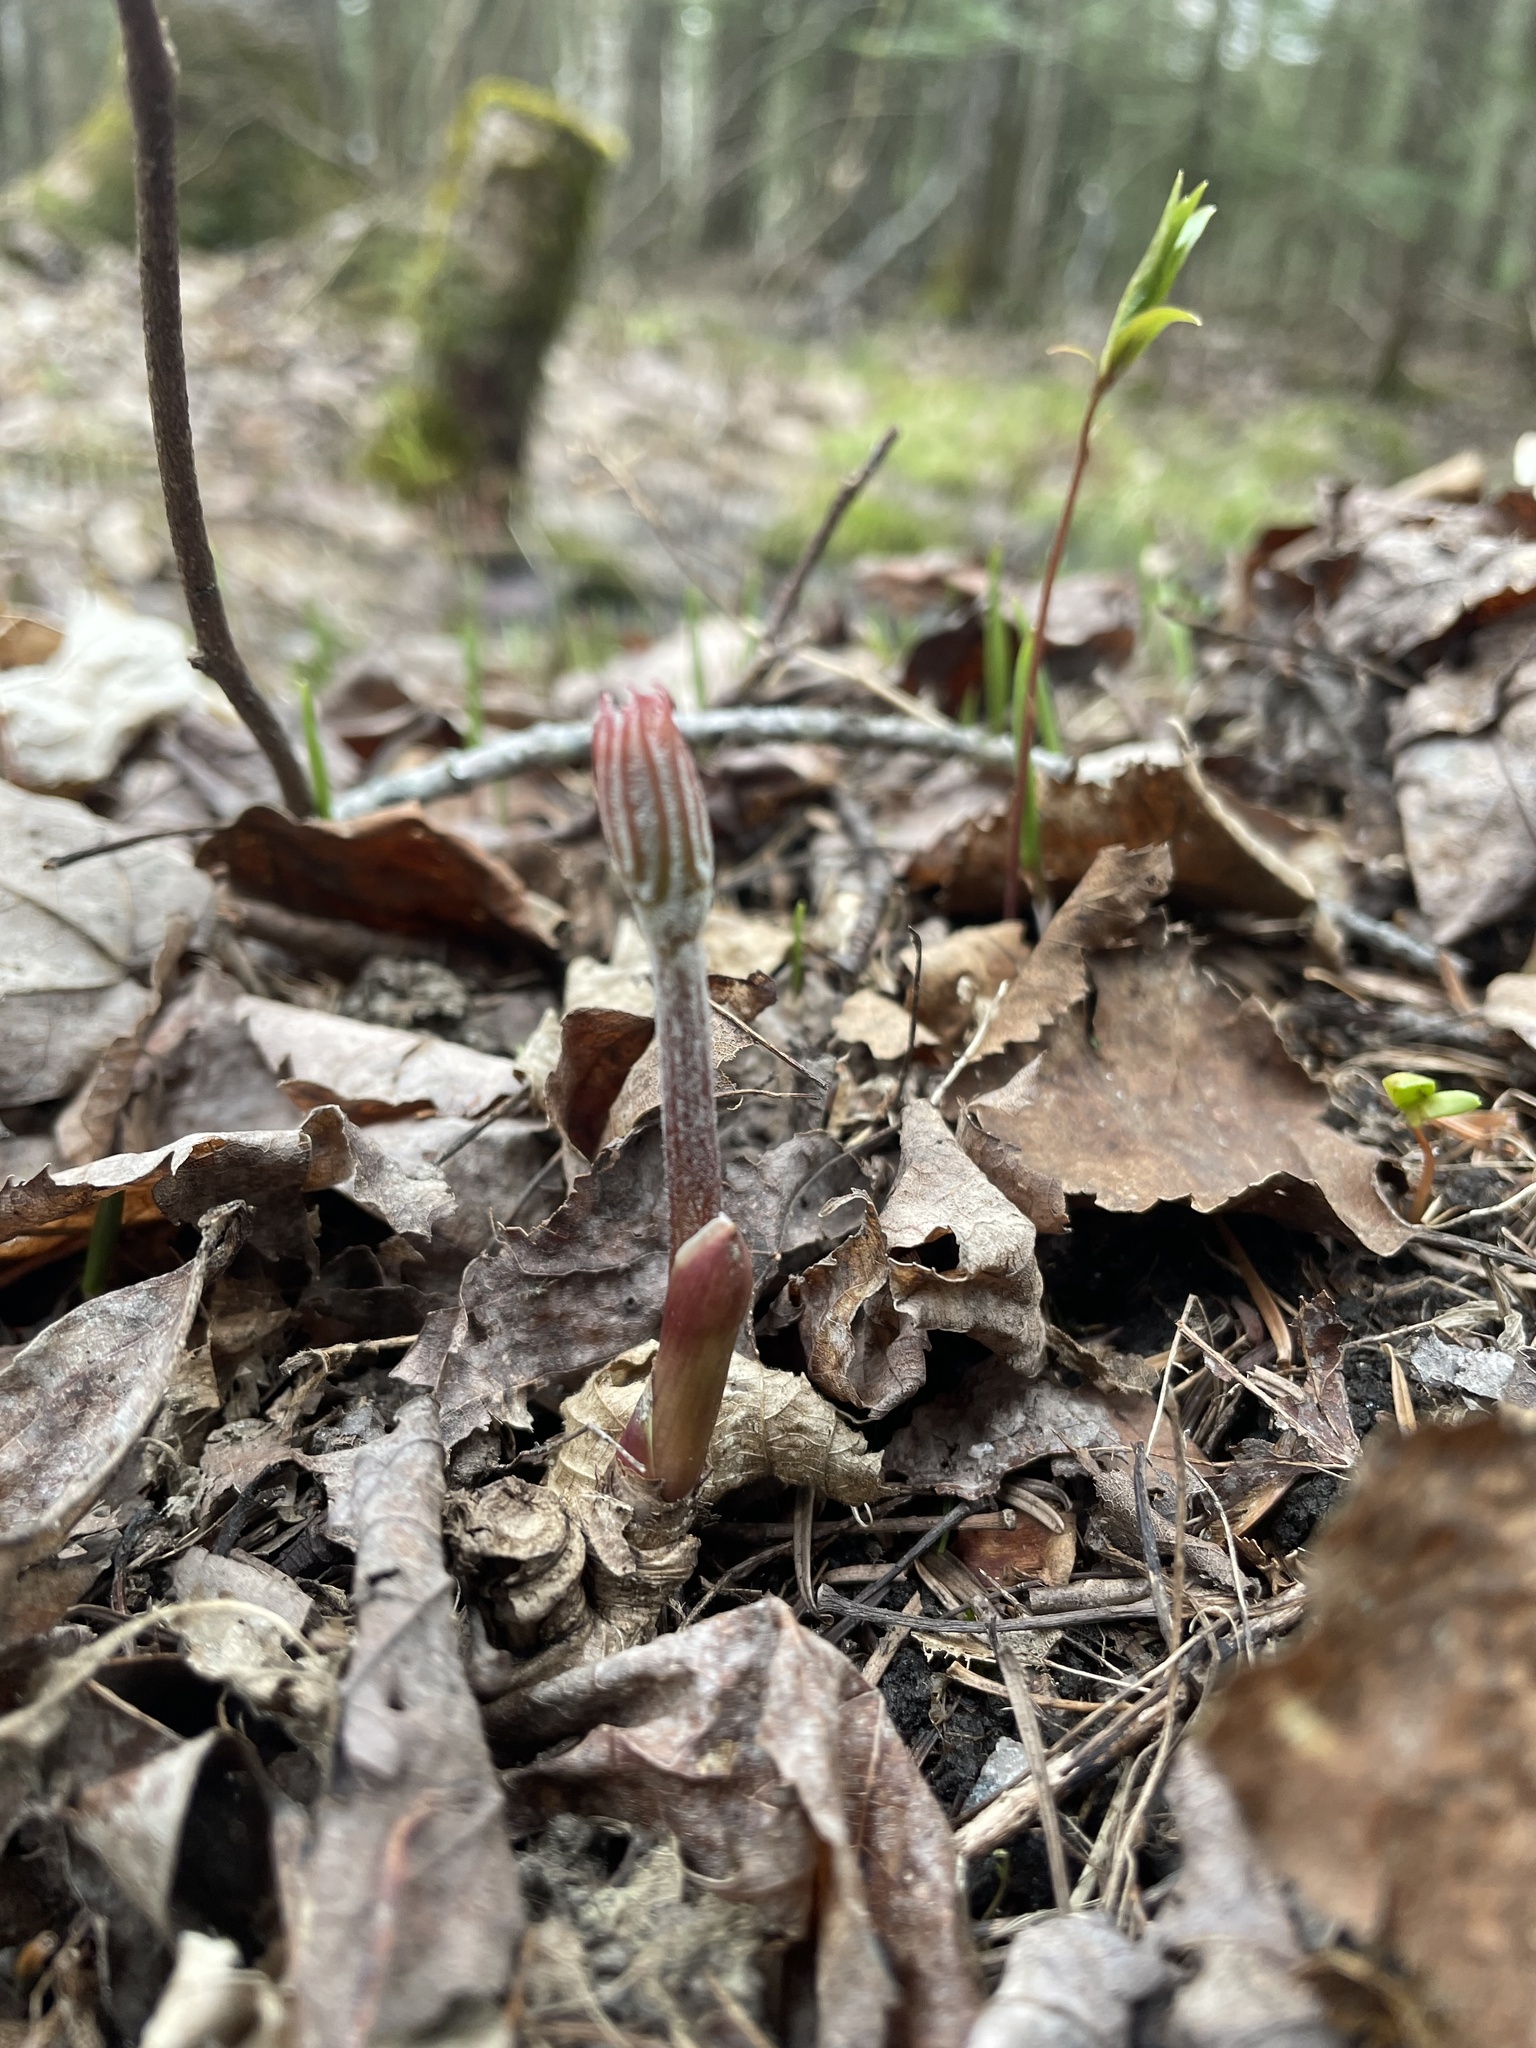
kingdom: Plantae
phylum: Tracheophyta
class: Magnoliopsida
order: Apiales
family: Araliaceae
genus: Aralia
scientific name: Aralia nudicaulis
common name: Wild sarsaparilla
